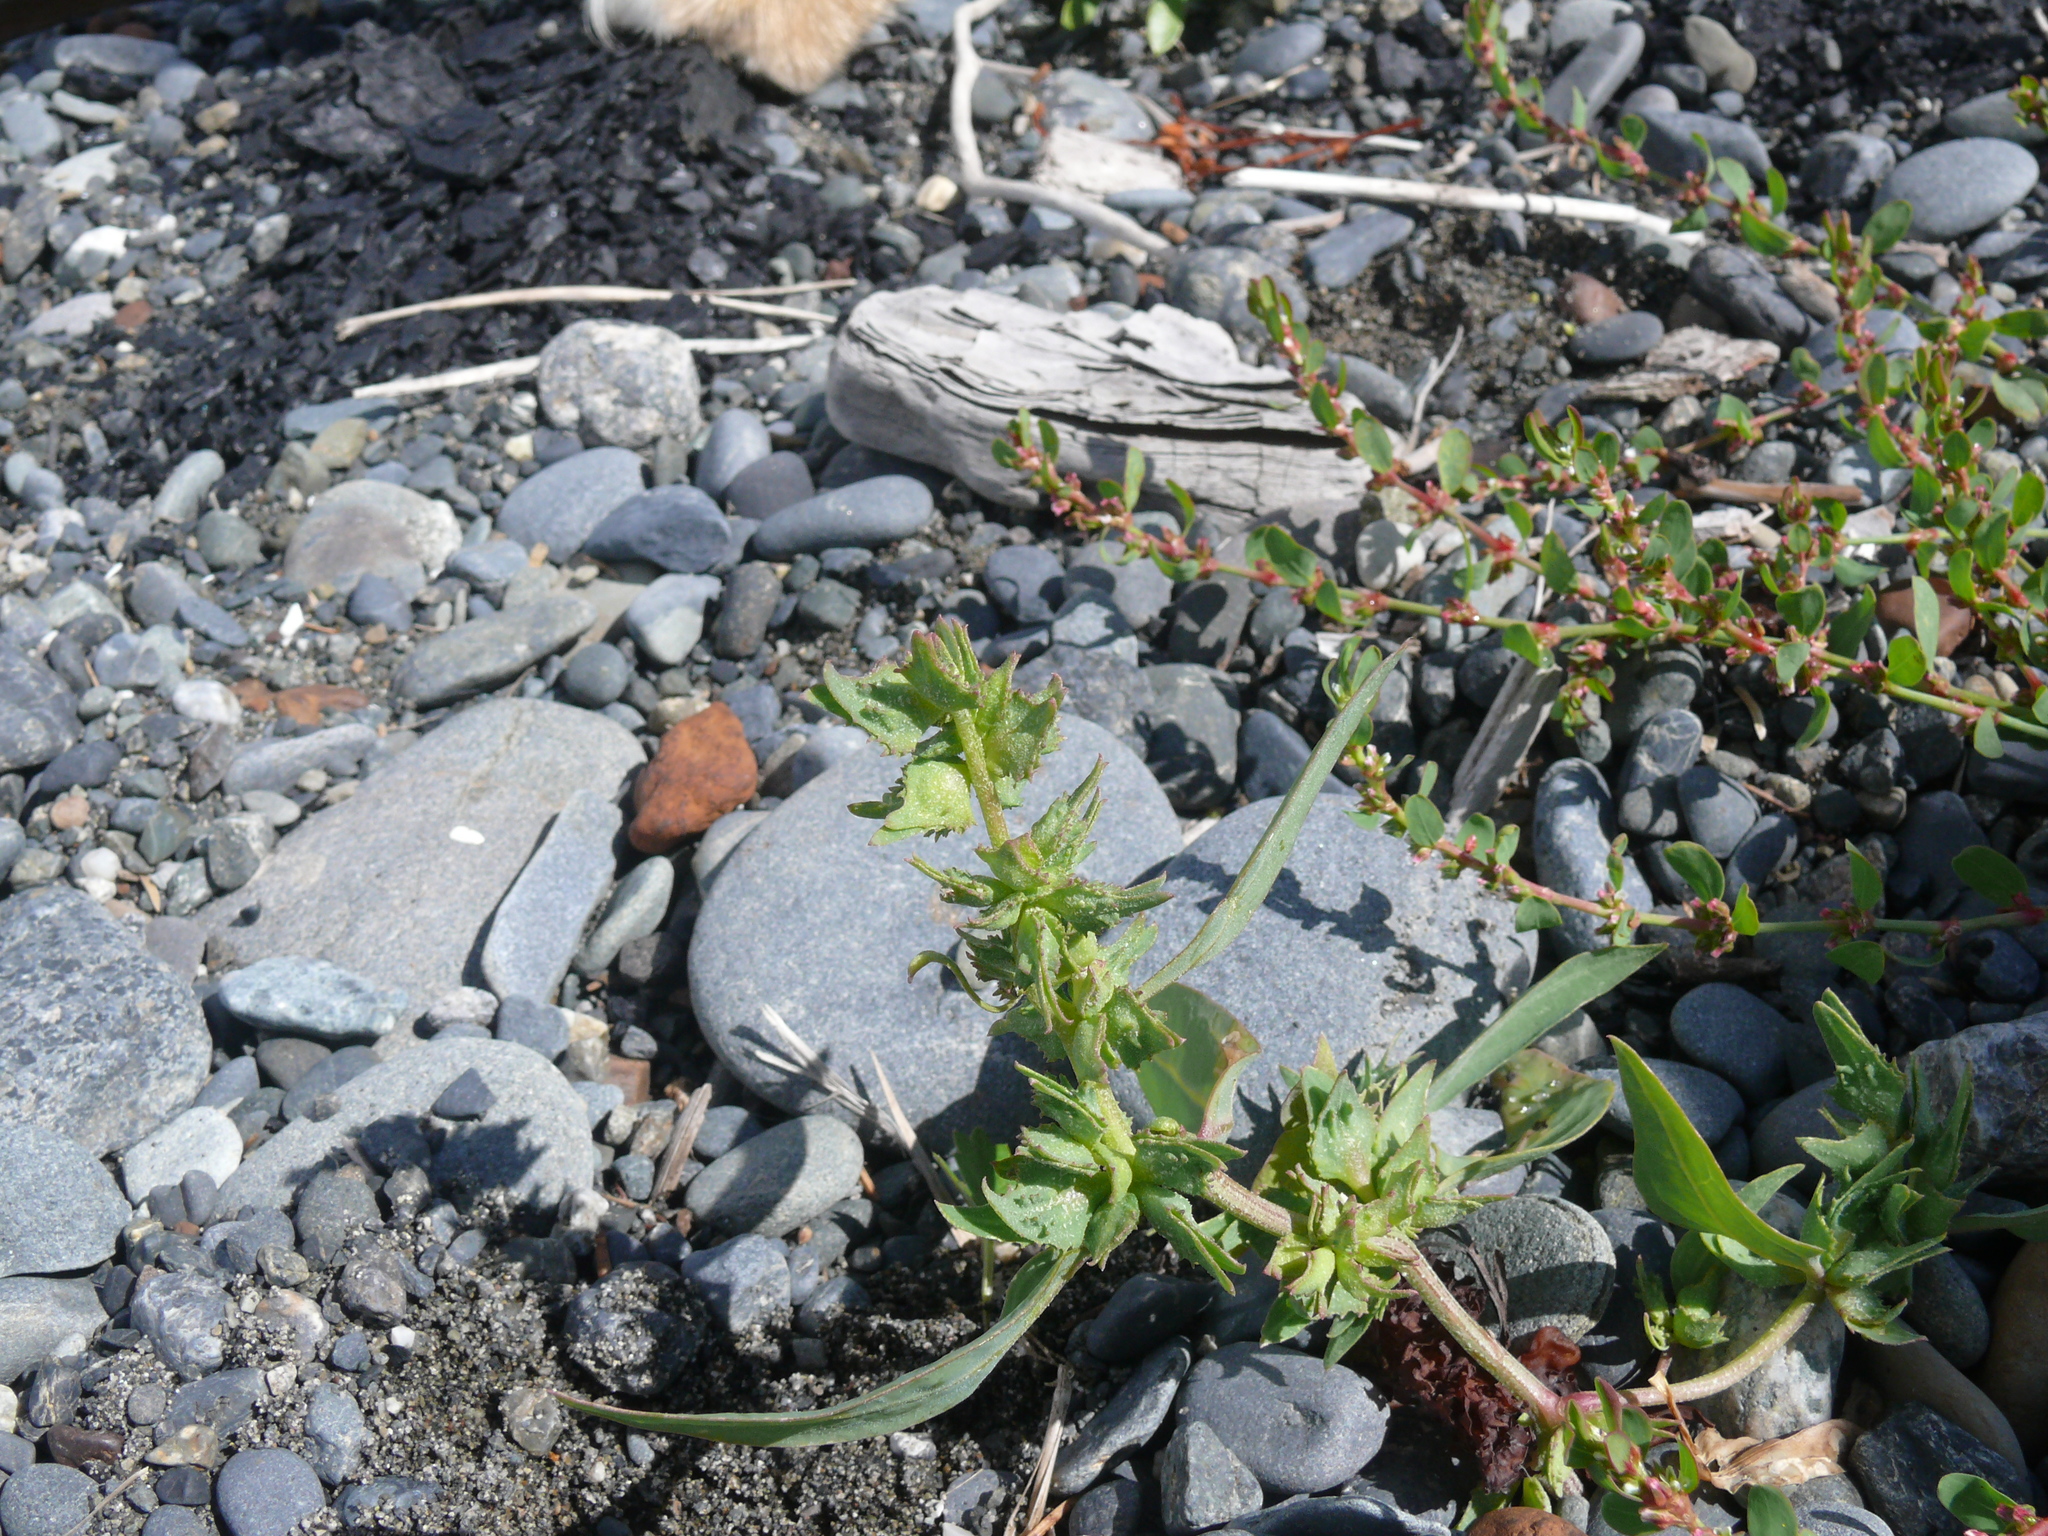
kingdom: Plantae
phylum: Tracheophyta
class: Magnoliopsida
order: Caryophyllales
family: Amaranthaceae
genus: Atriplex
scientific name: Atriplex gmelinii
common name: Gmelin's orach
